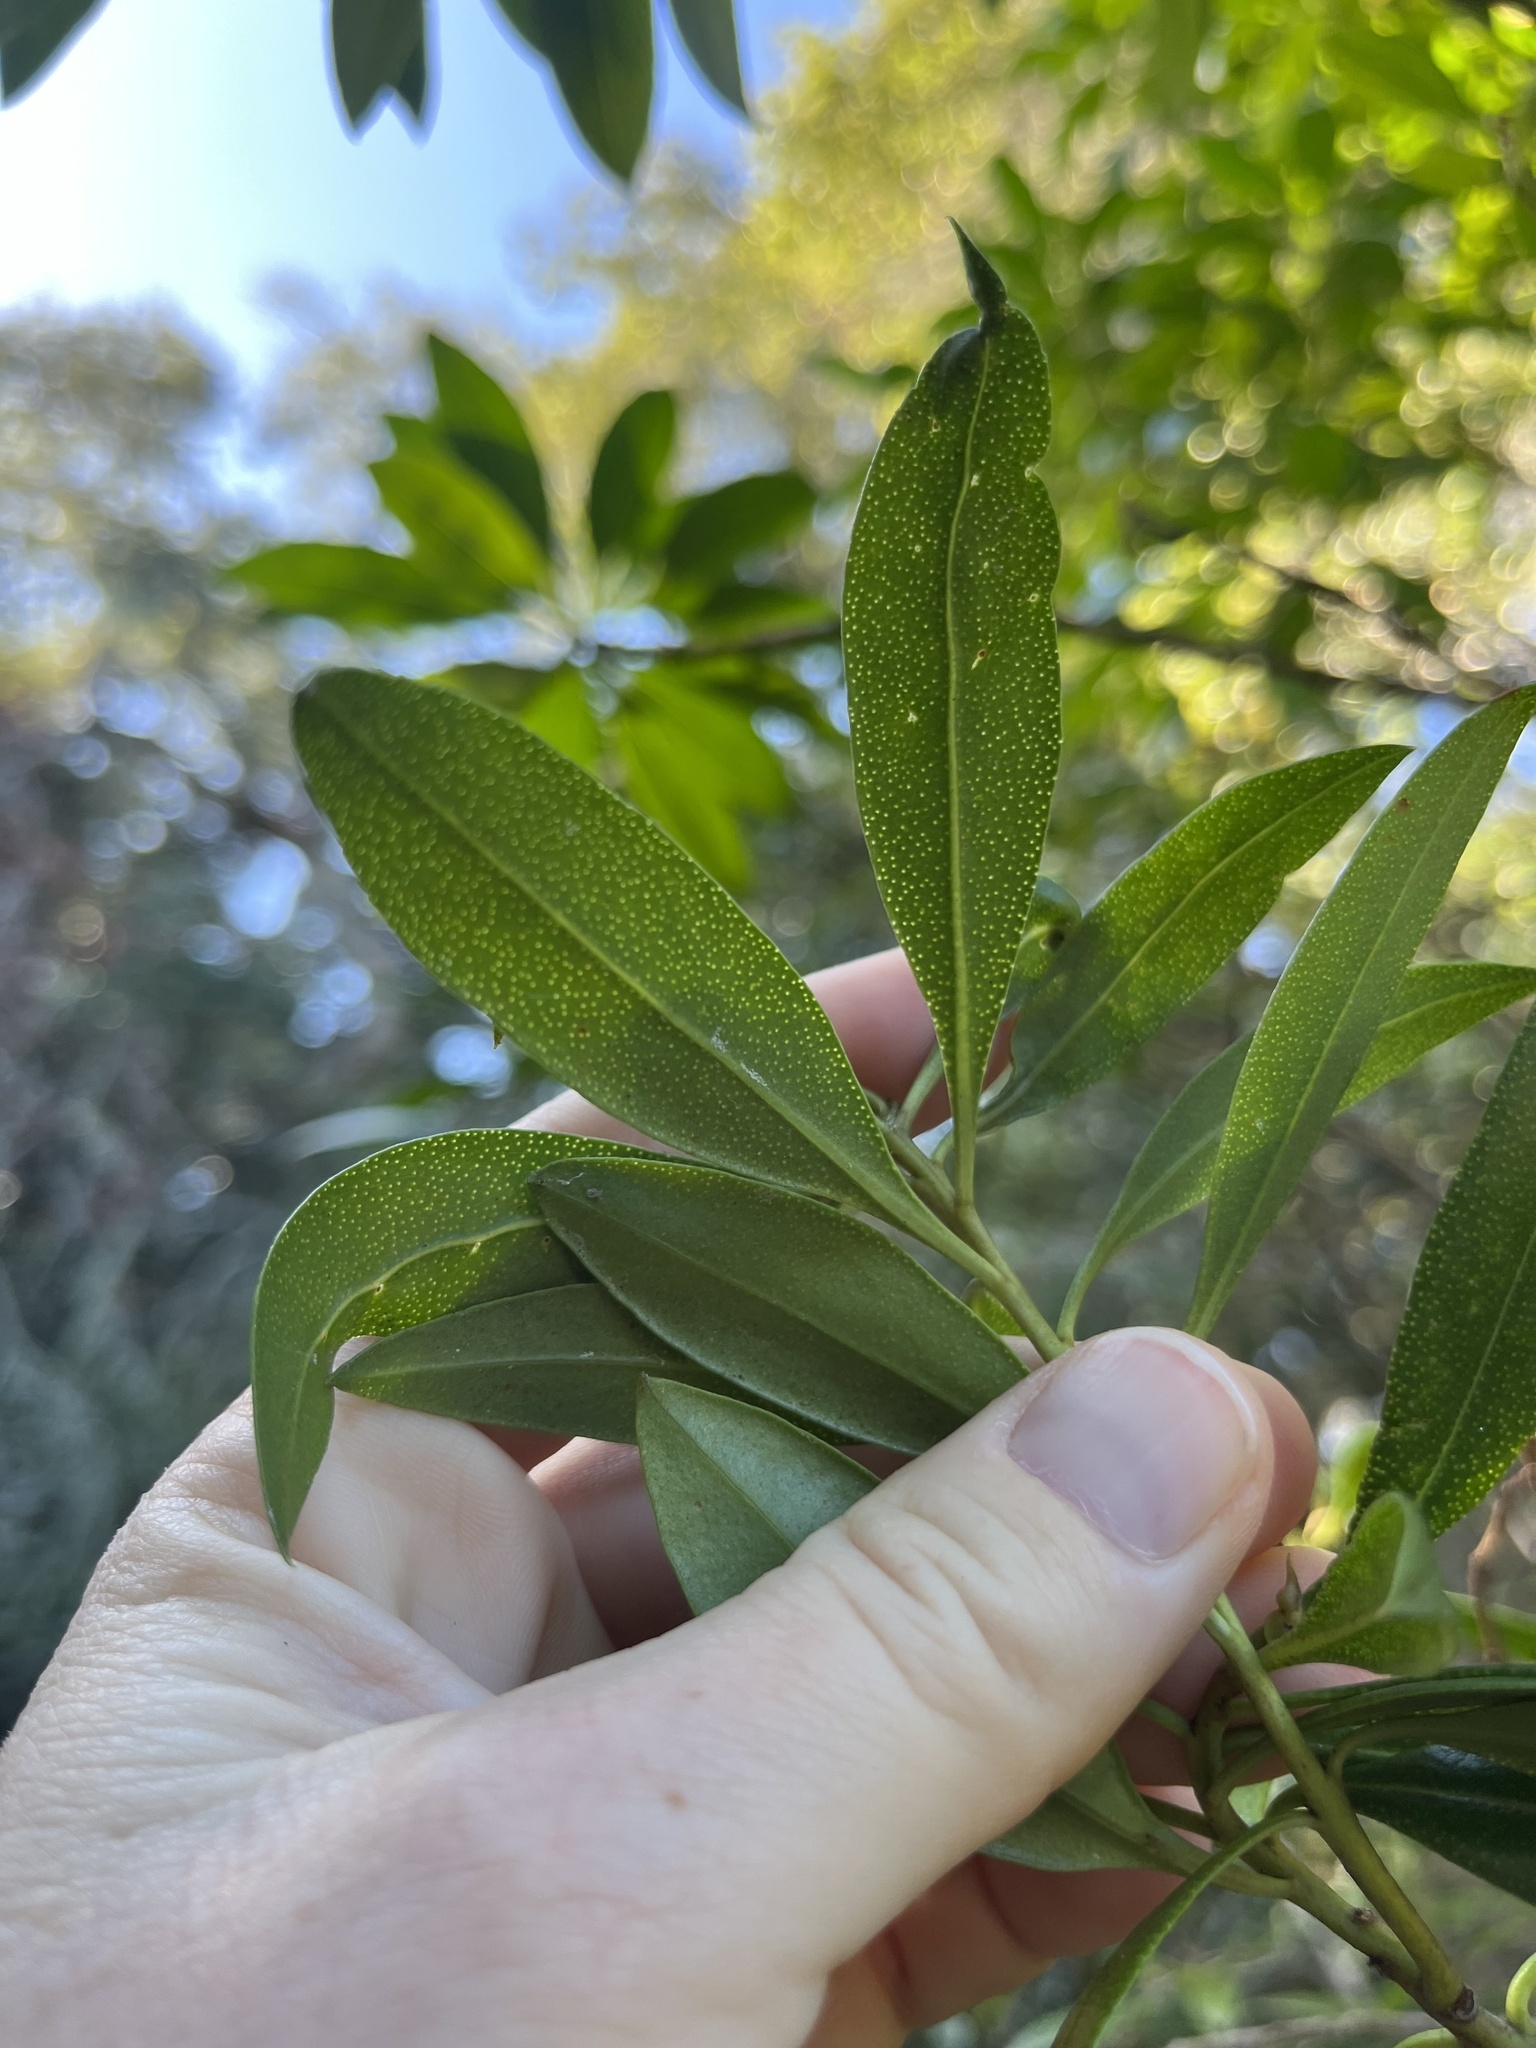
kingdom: Plantae
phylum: Tracheophyta
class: Magnoliopsida
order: Lamiales
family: Scrophulariaceae
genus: Myoporum
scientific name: Myoporum laetum
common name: Ngaio tree
